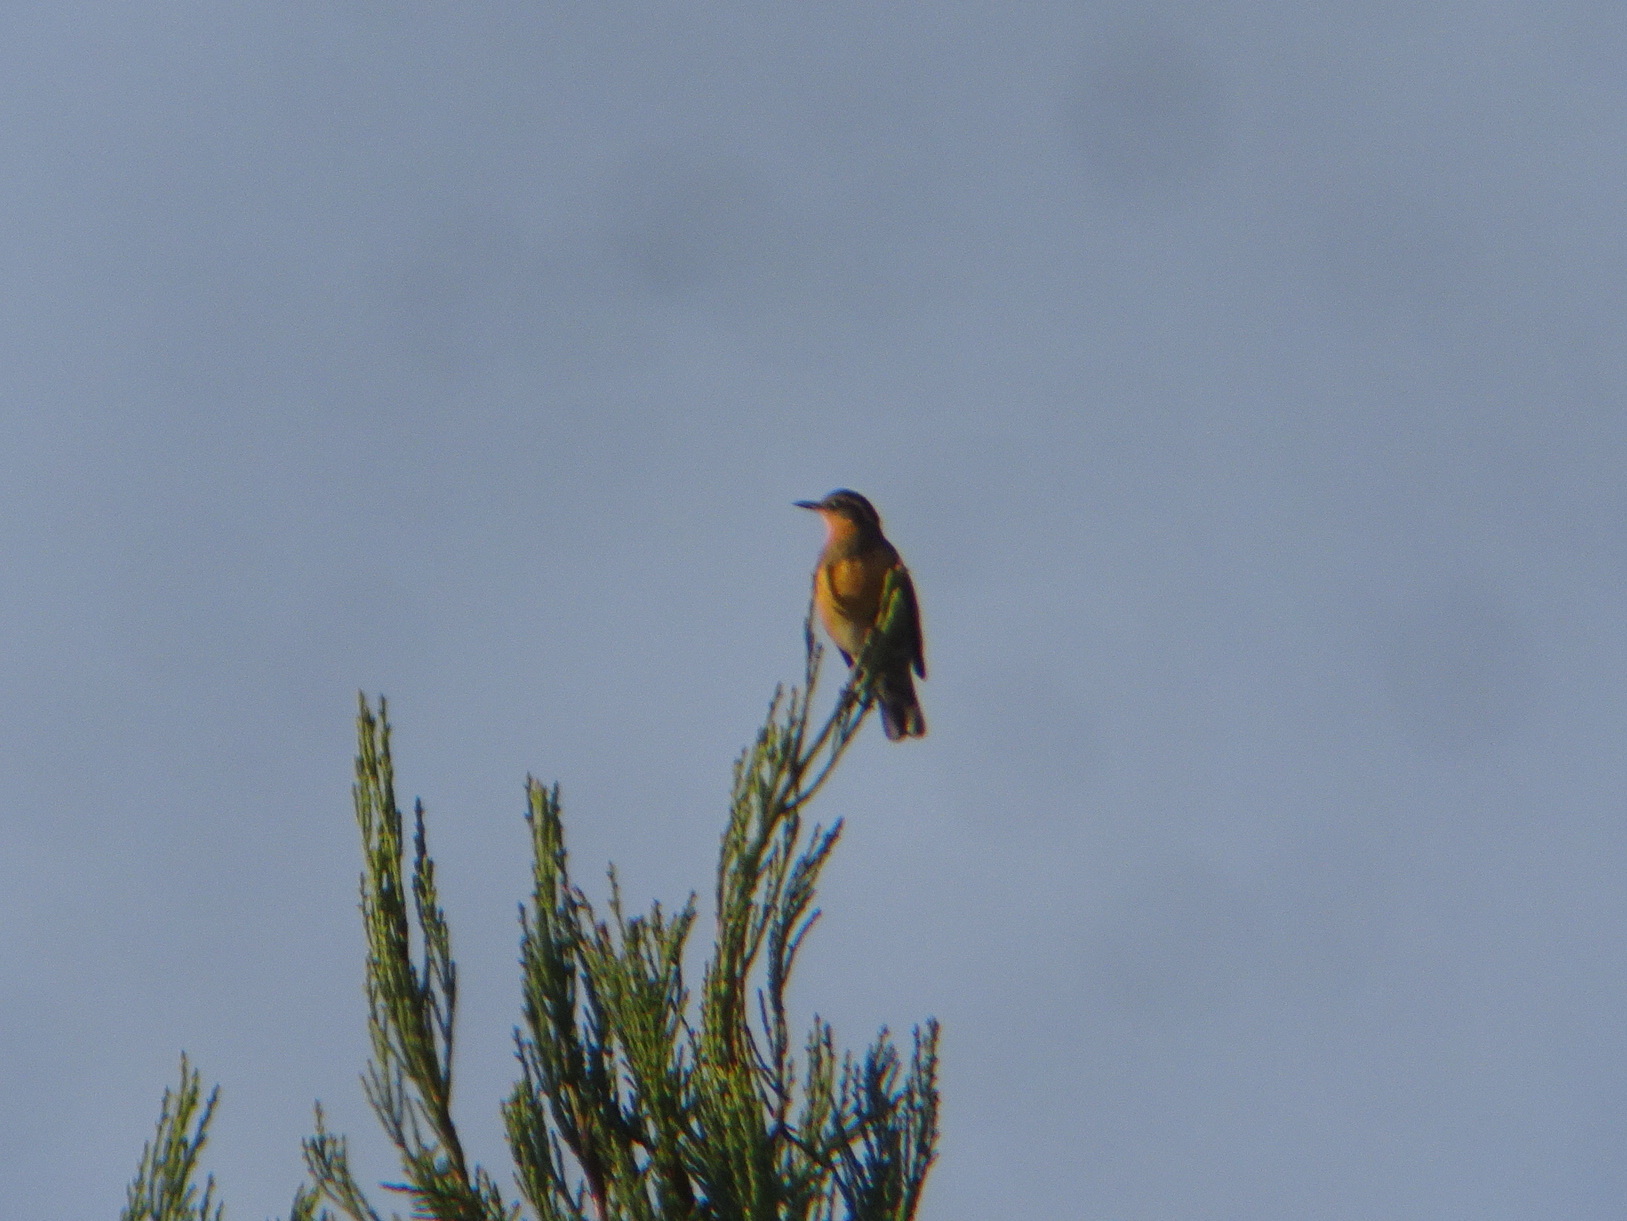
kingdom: Animalia
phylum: Chordata
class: Aves
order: Passeriformes
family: Turdidae
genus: Ixoreus
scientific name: Ixoreus naevius
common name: Varied thrush
